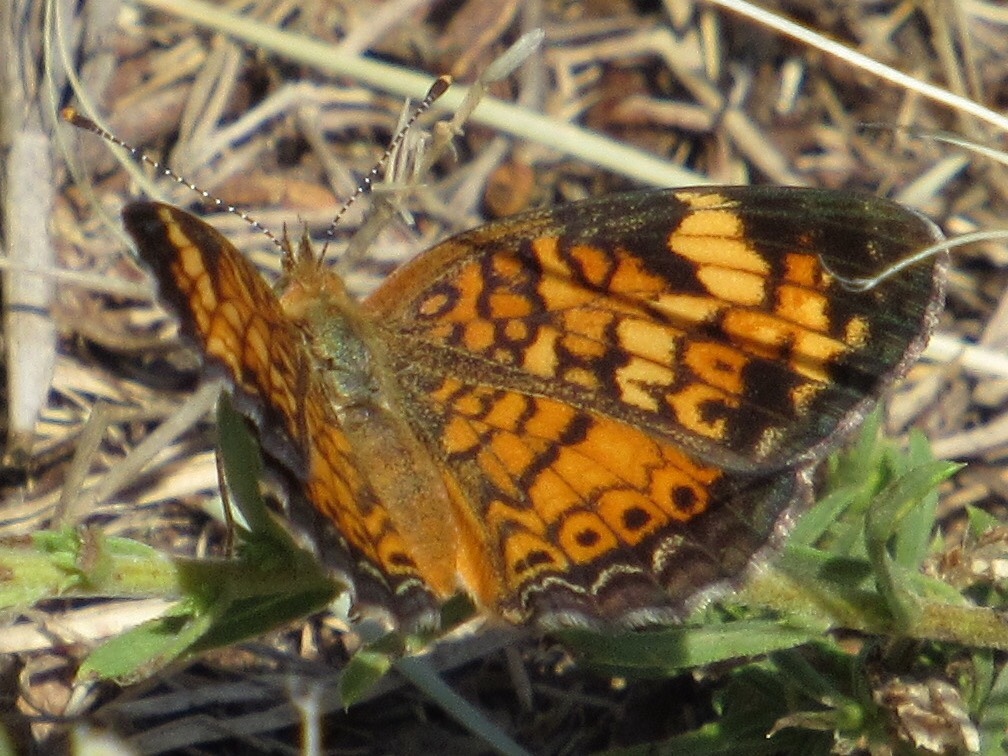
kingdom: Animalia
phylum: Arthropoda
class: Insecta
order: Lepidoptera
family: Nymphalidae
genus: Phyciodes
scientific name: Phyciodes tharos
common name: Pearl crescent
